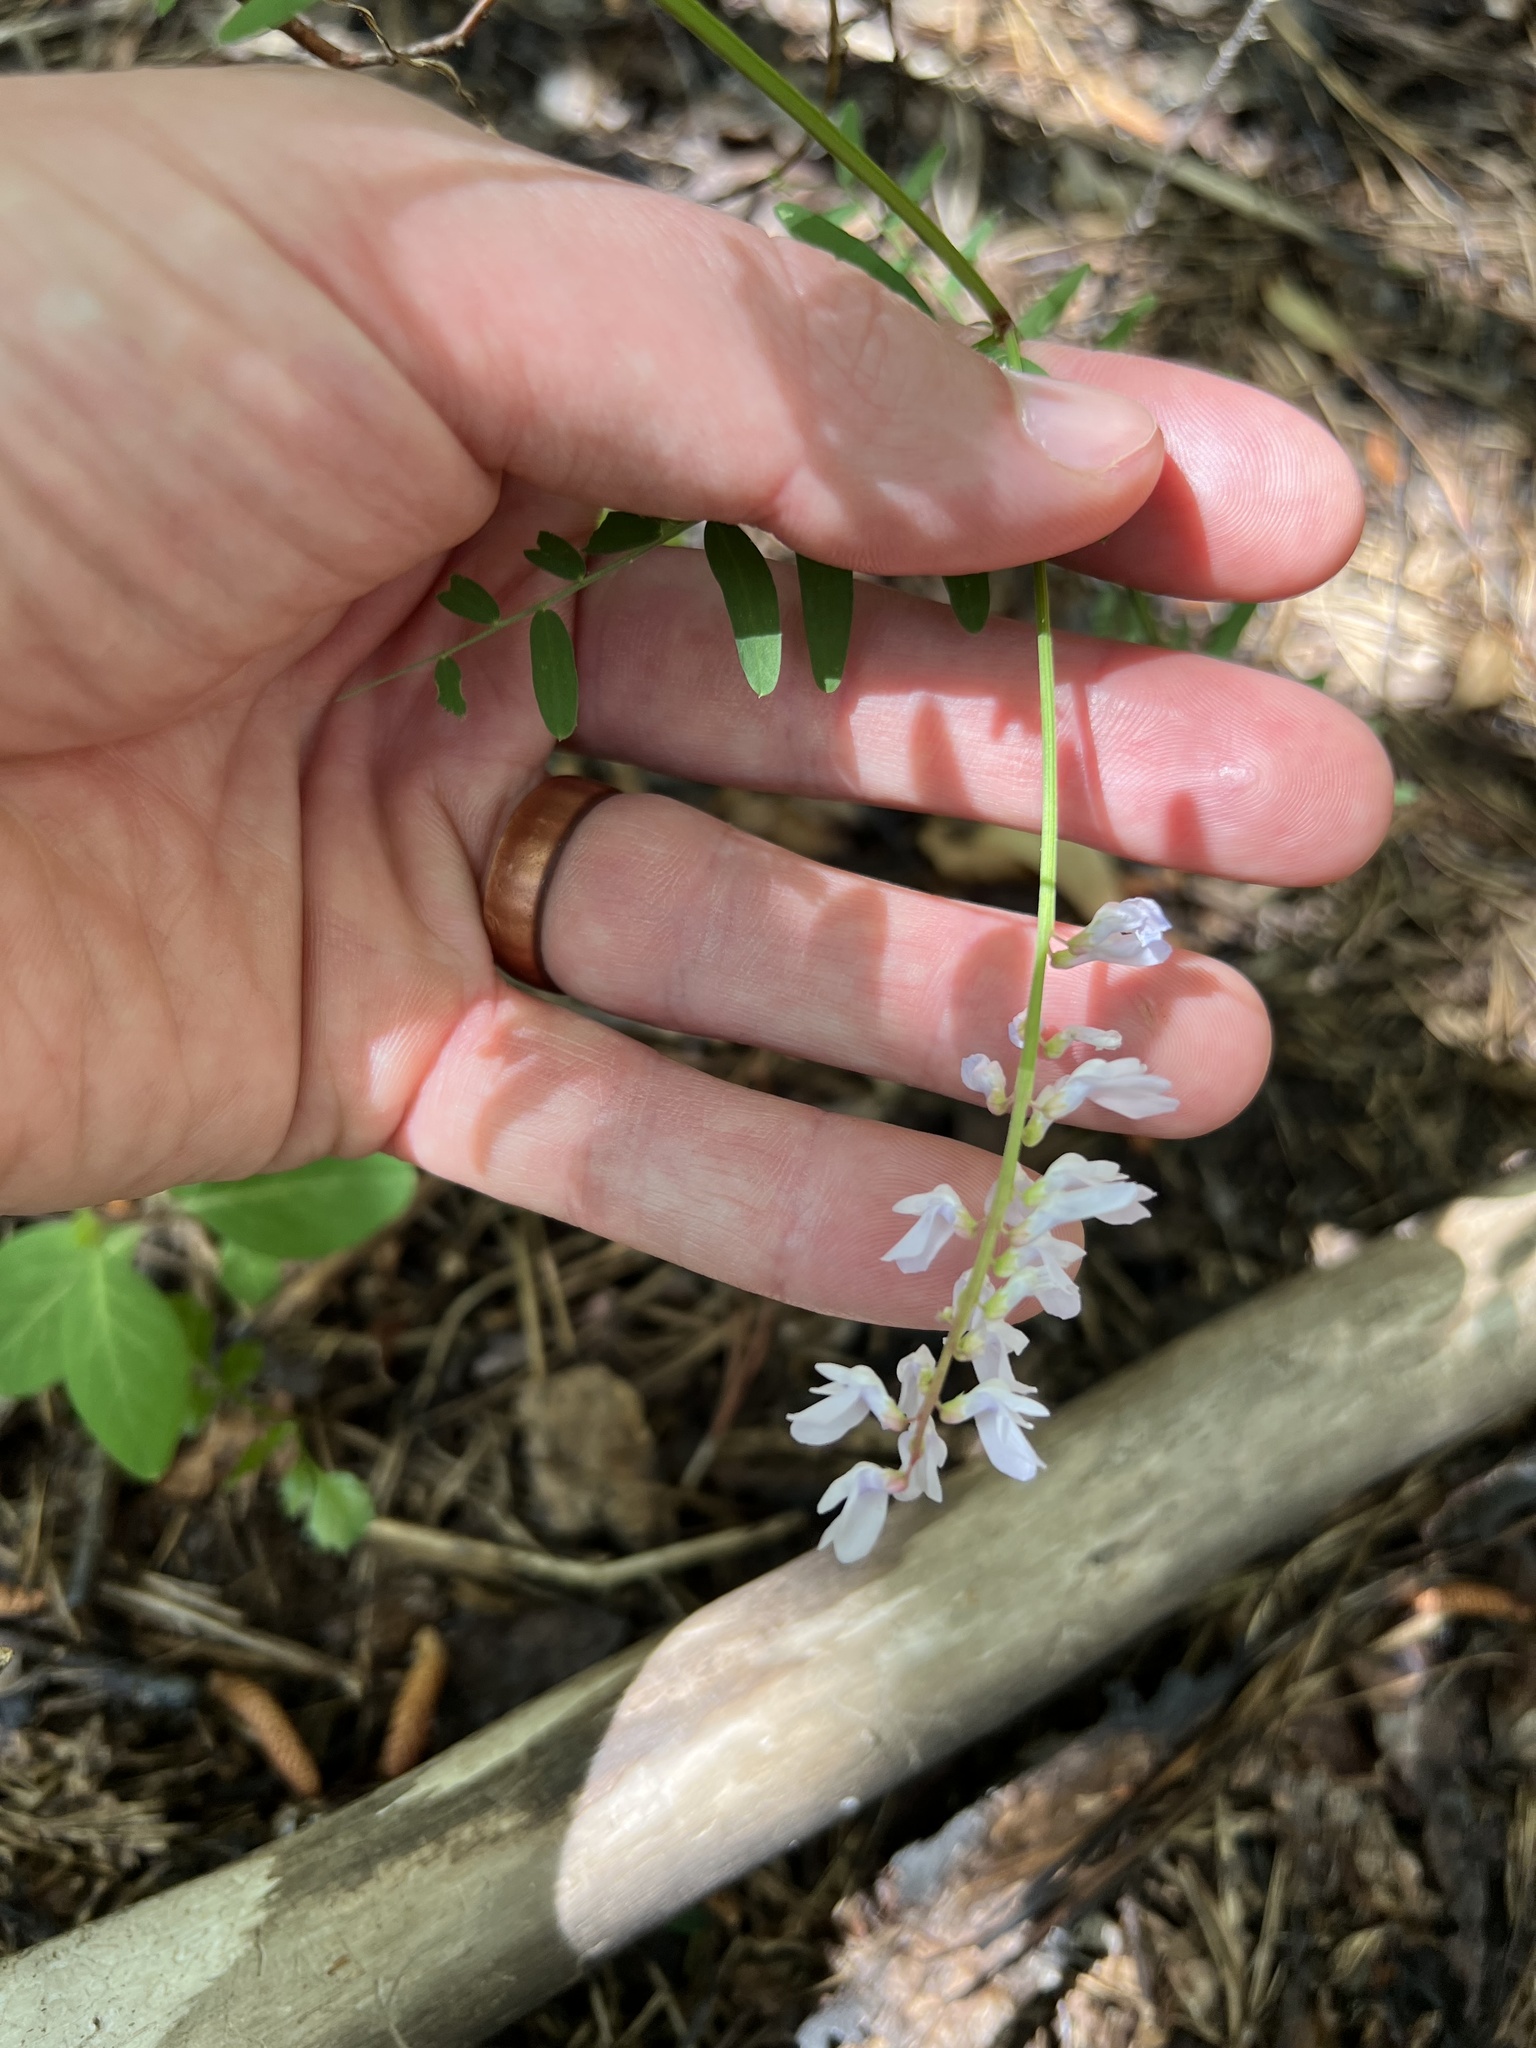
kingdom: Plantae
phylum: Tracheophyta
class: Magnoliopsida
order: Fabales
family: Fabaceae
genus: Vicia
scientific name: Vicia caroliniana
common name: Carolina vetch
